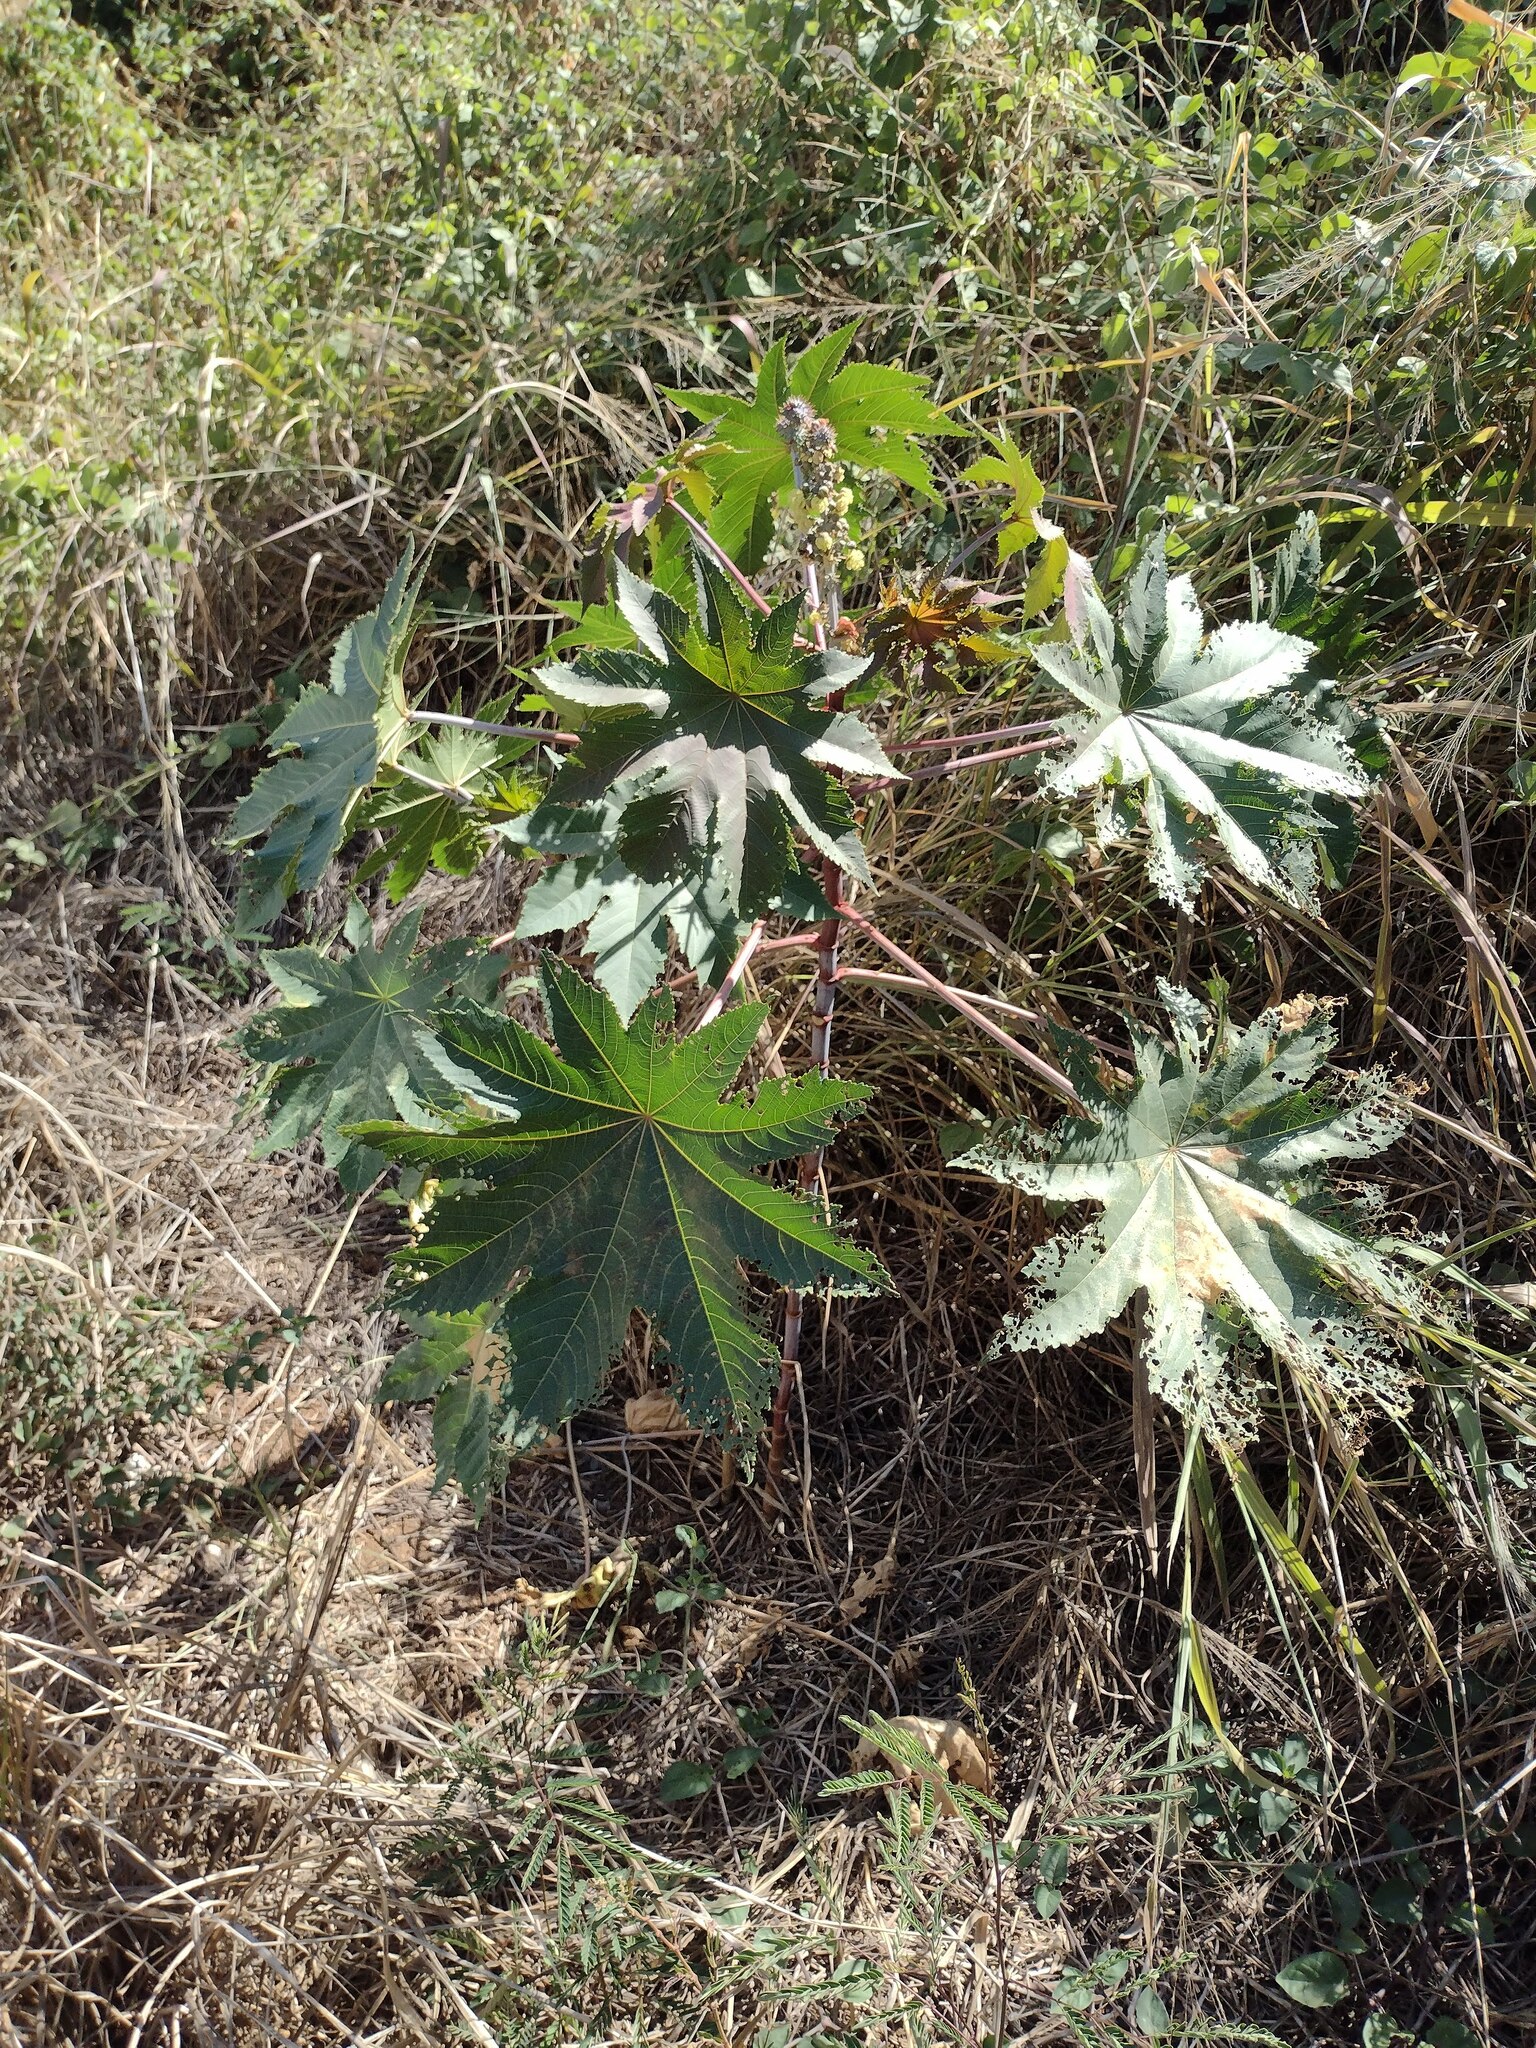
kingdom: Plantae
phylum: Tracheophyta
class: Magnoliopsida
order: Malpighiales
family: Euphorbiaceae
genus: Ricinus
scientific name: Ricinus communis
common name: Castor-oil-plant
